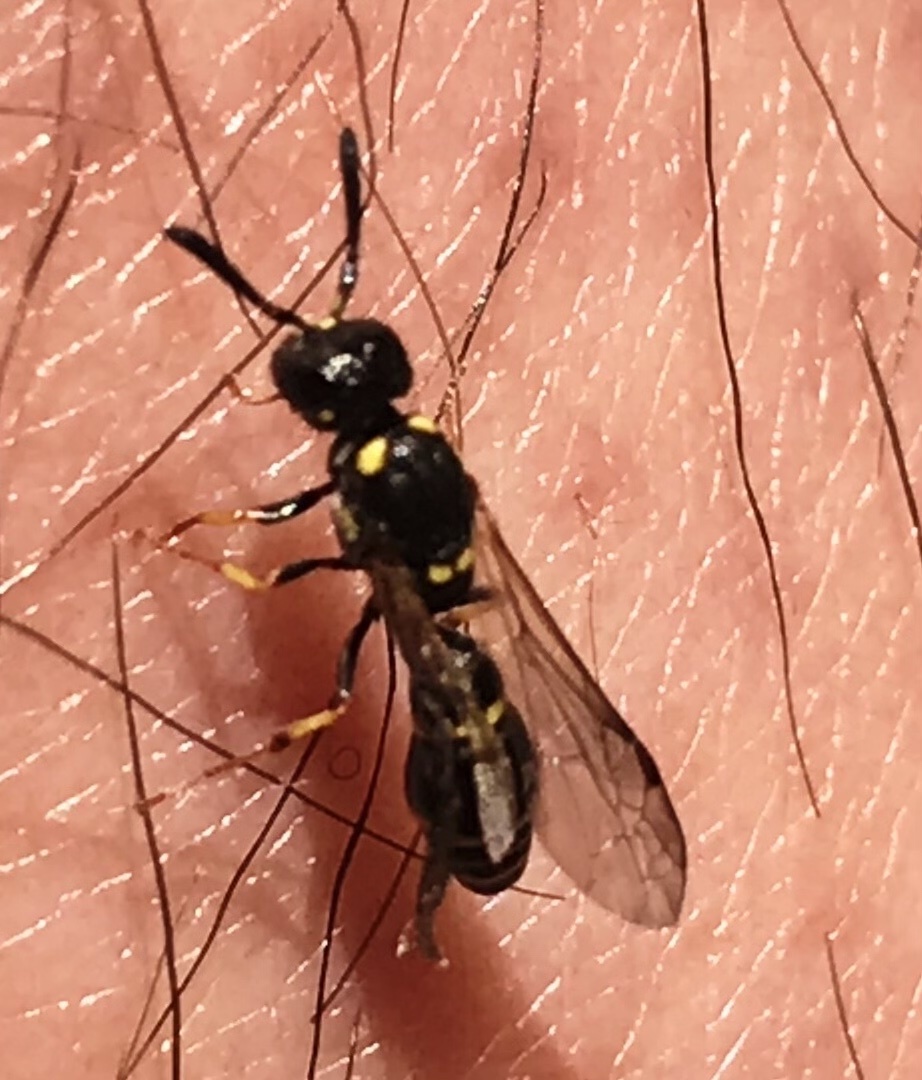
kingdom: Animalia
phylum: Arthropoda
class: Insecta
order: Hymenoptera
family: Eumenidae
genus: Symmorphus
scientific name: Symmorphus canadensis
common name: Canadian potter wasp
